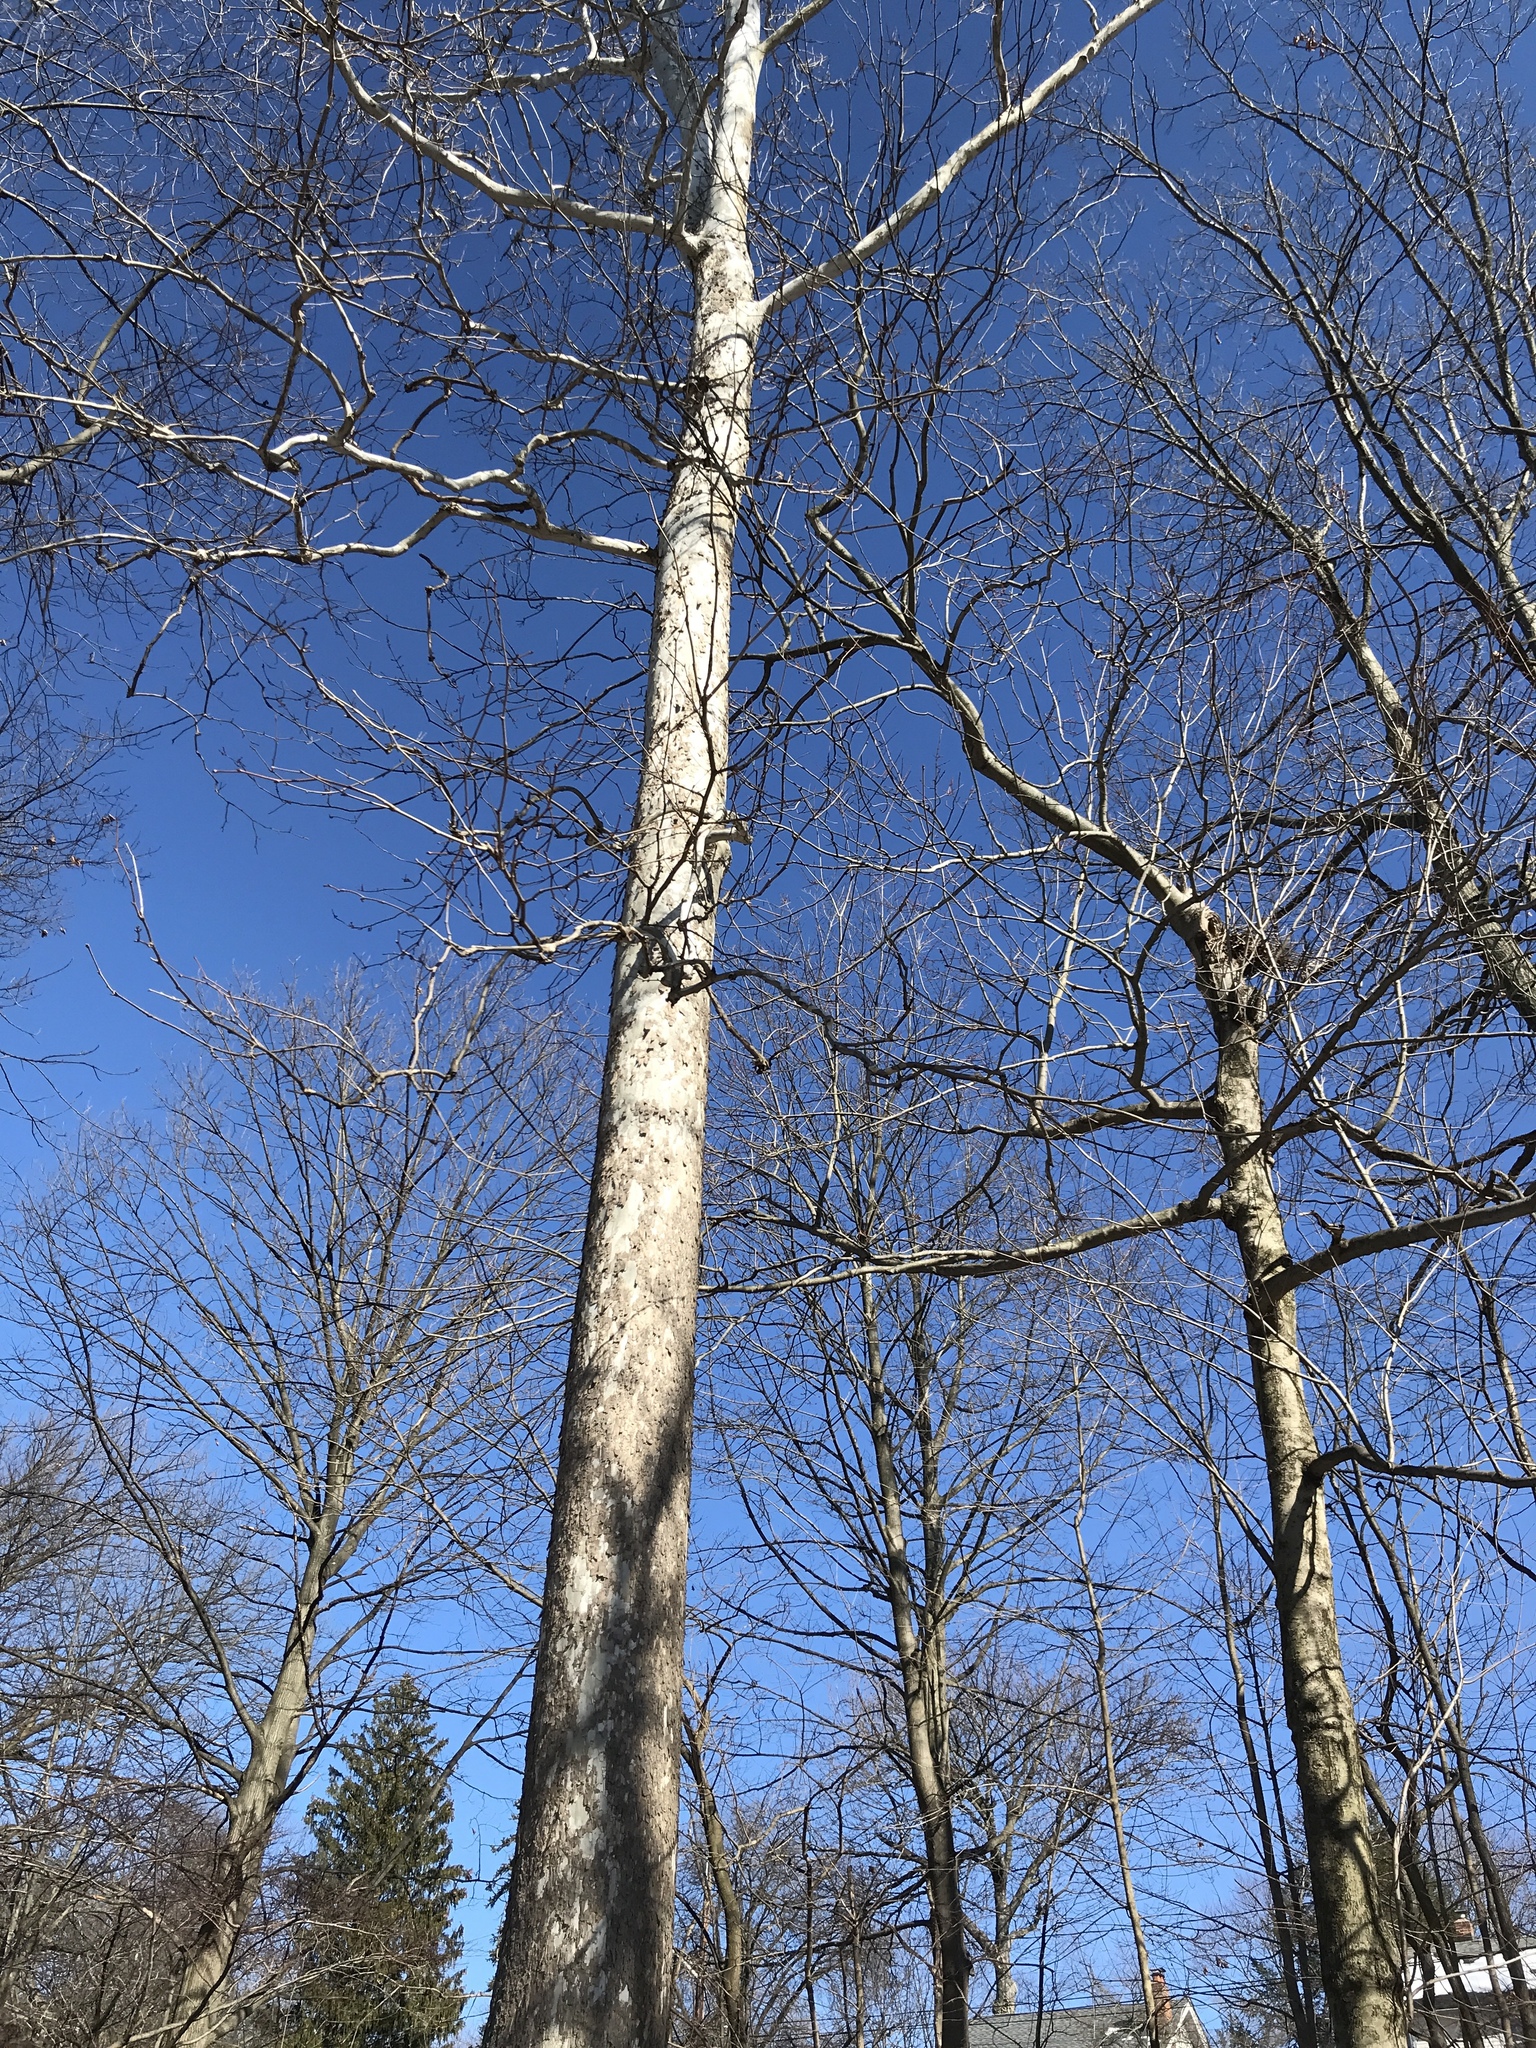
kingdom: Plantae
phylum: Tracheophyta
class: Magnoliopsida
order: Proteales
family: Platanaceae
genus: Platanus
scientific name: Platanus occidentalis
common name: American sycamore
